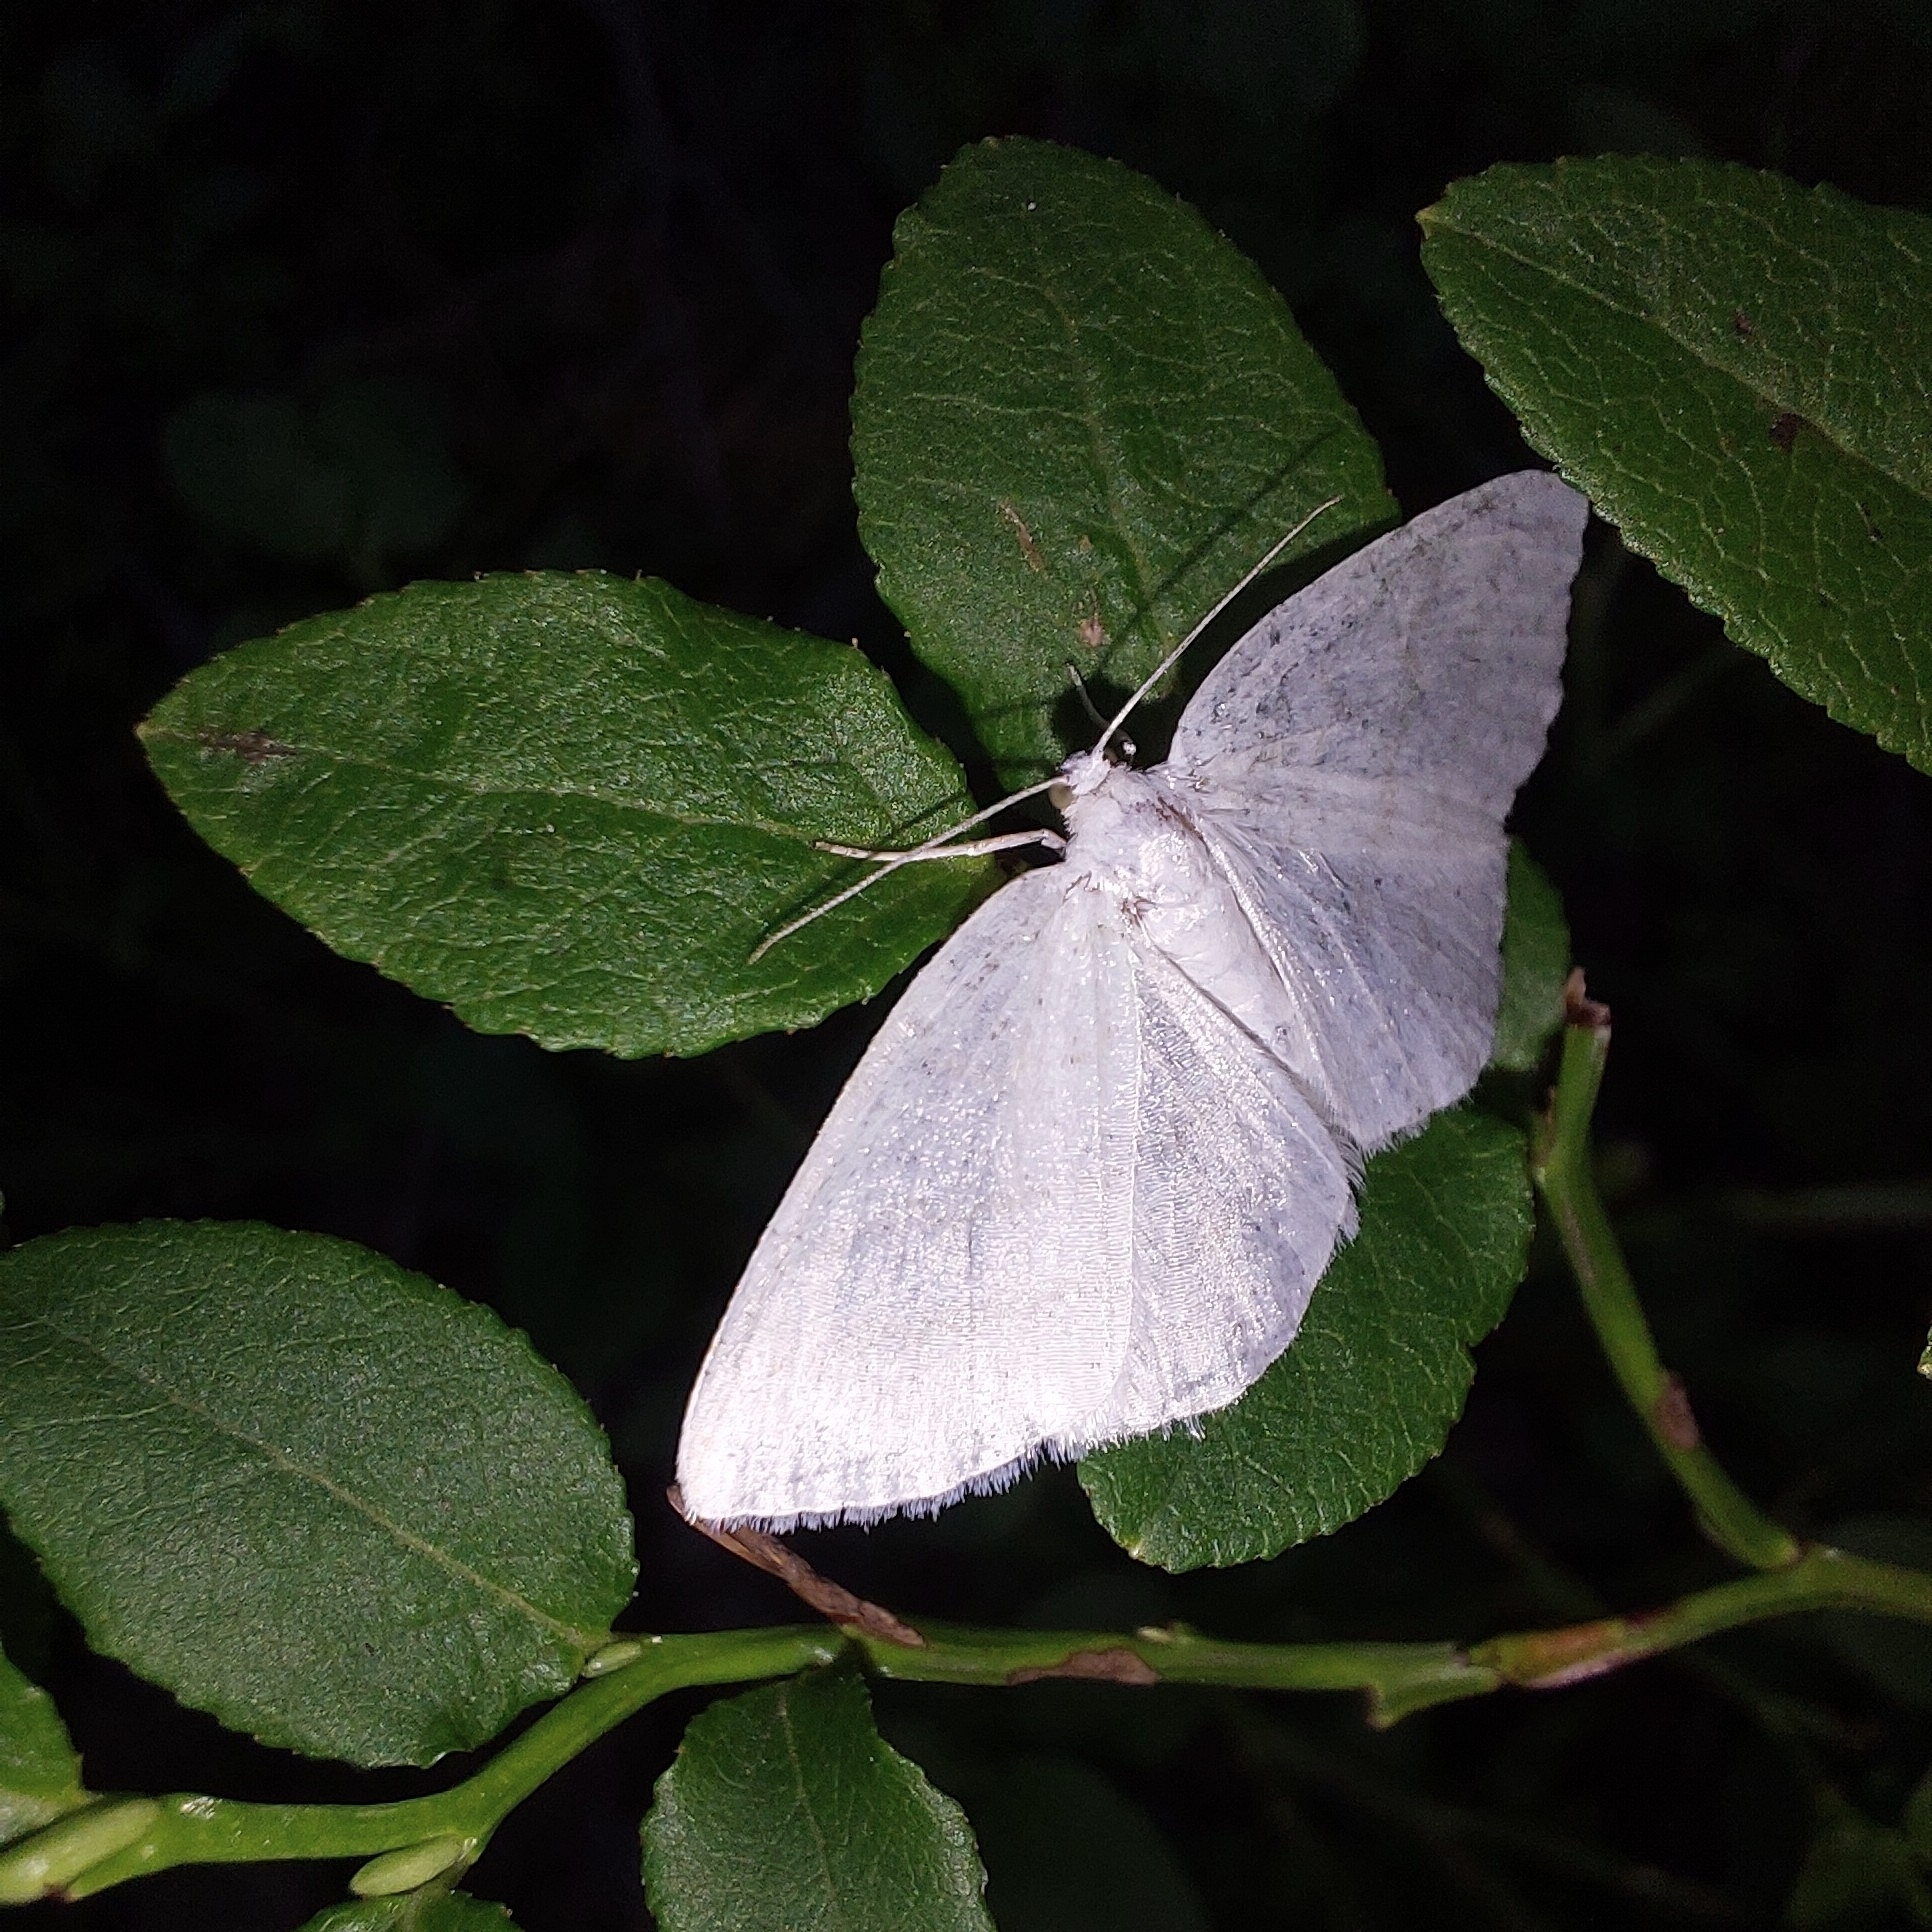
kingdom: Animalia
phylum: Arthropoda
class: Insecta
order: Lepidoptera
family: Geometridae
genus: Cabera
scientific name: Cabera pusaria
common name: Common white wave
